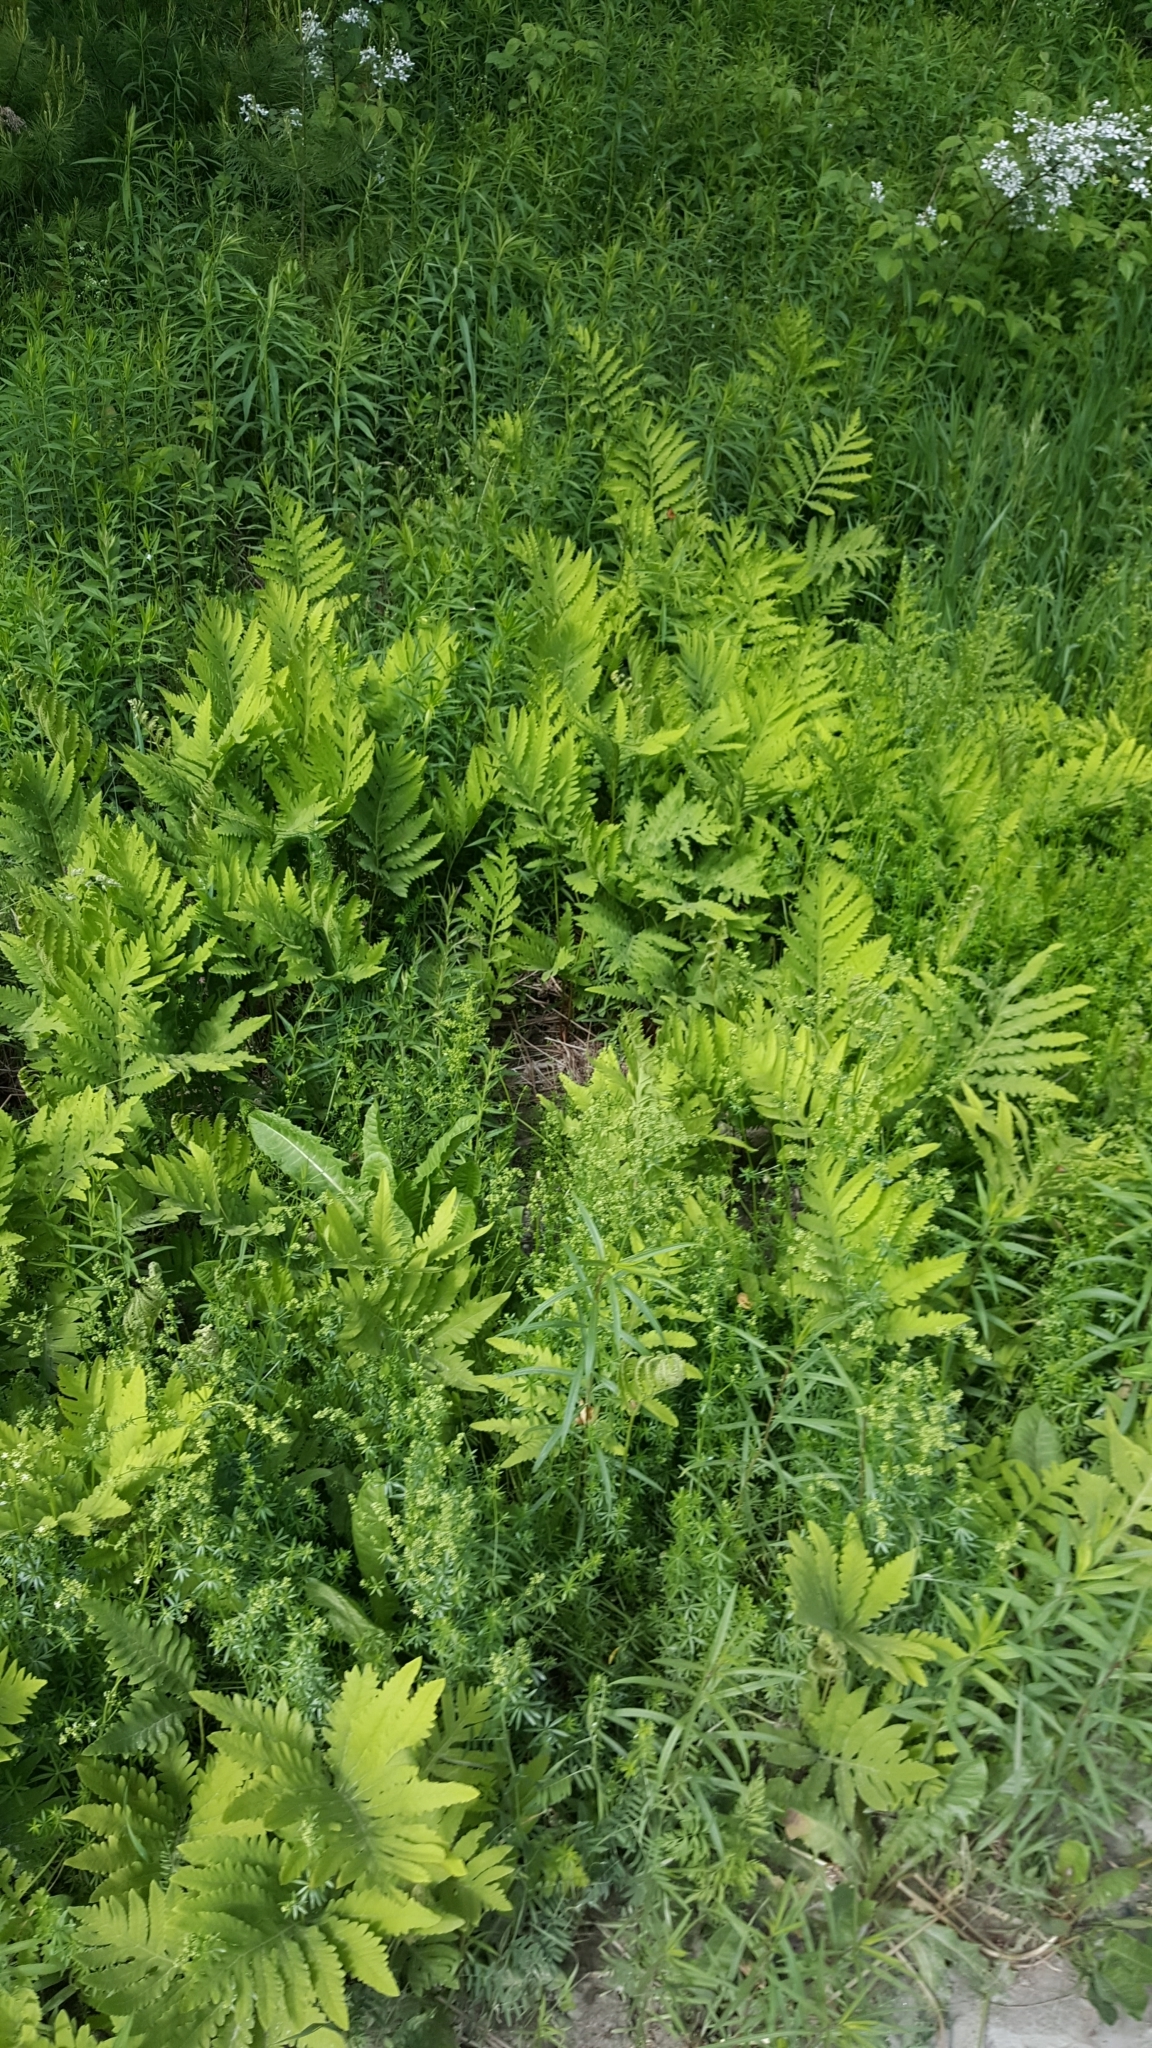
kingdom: Plantae
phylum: Tracheophyta
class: Polypodiopsida
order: Polypodiales
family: Onocleaceae
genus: Onoclea
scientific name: Onoclea sensibilis
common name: Sensitive fern
